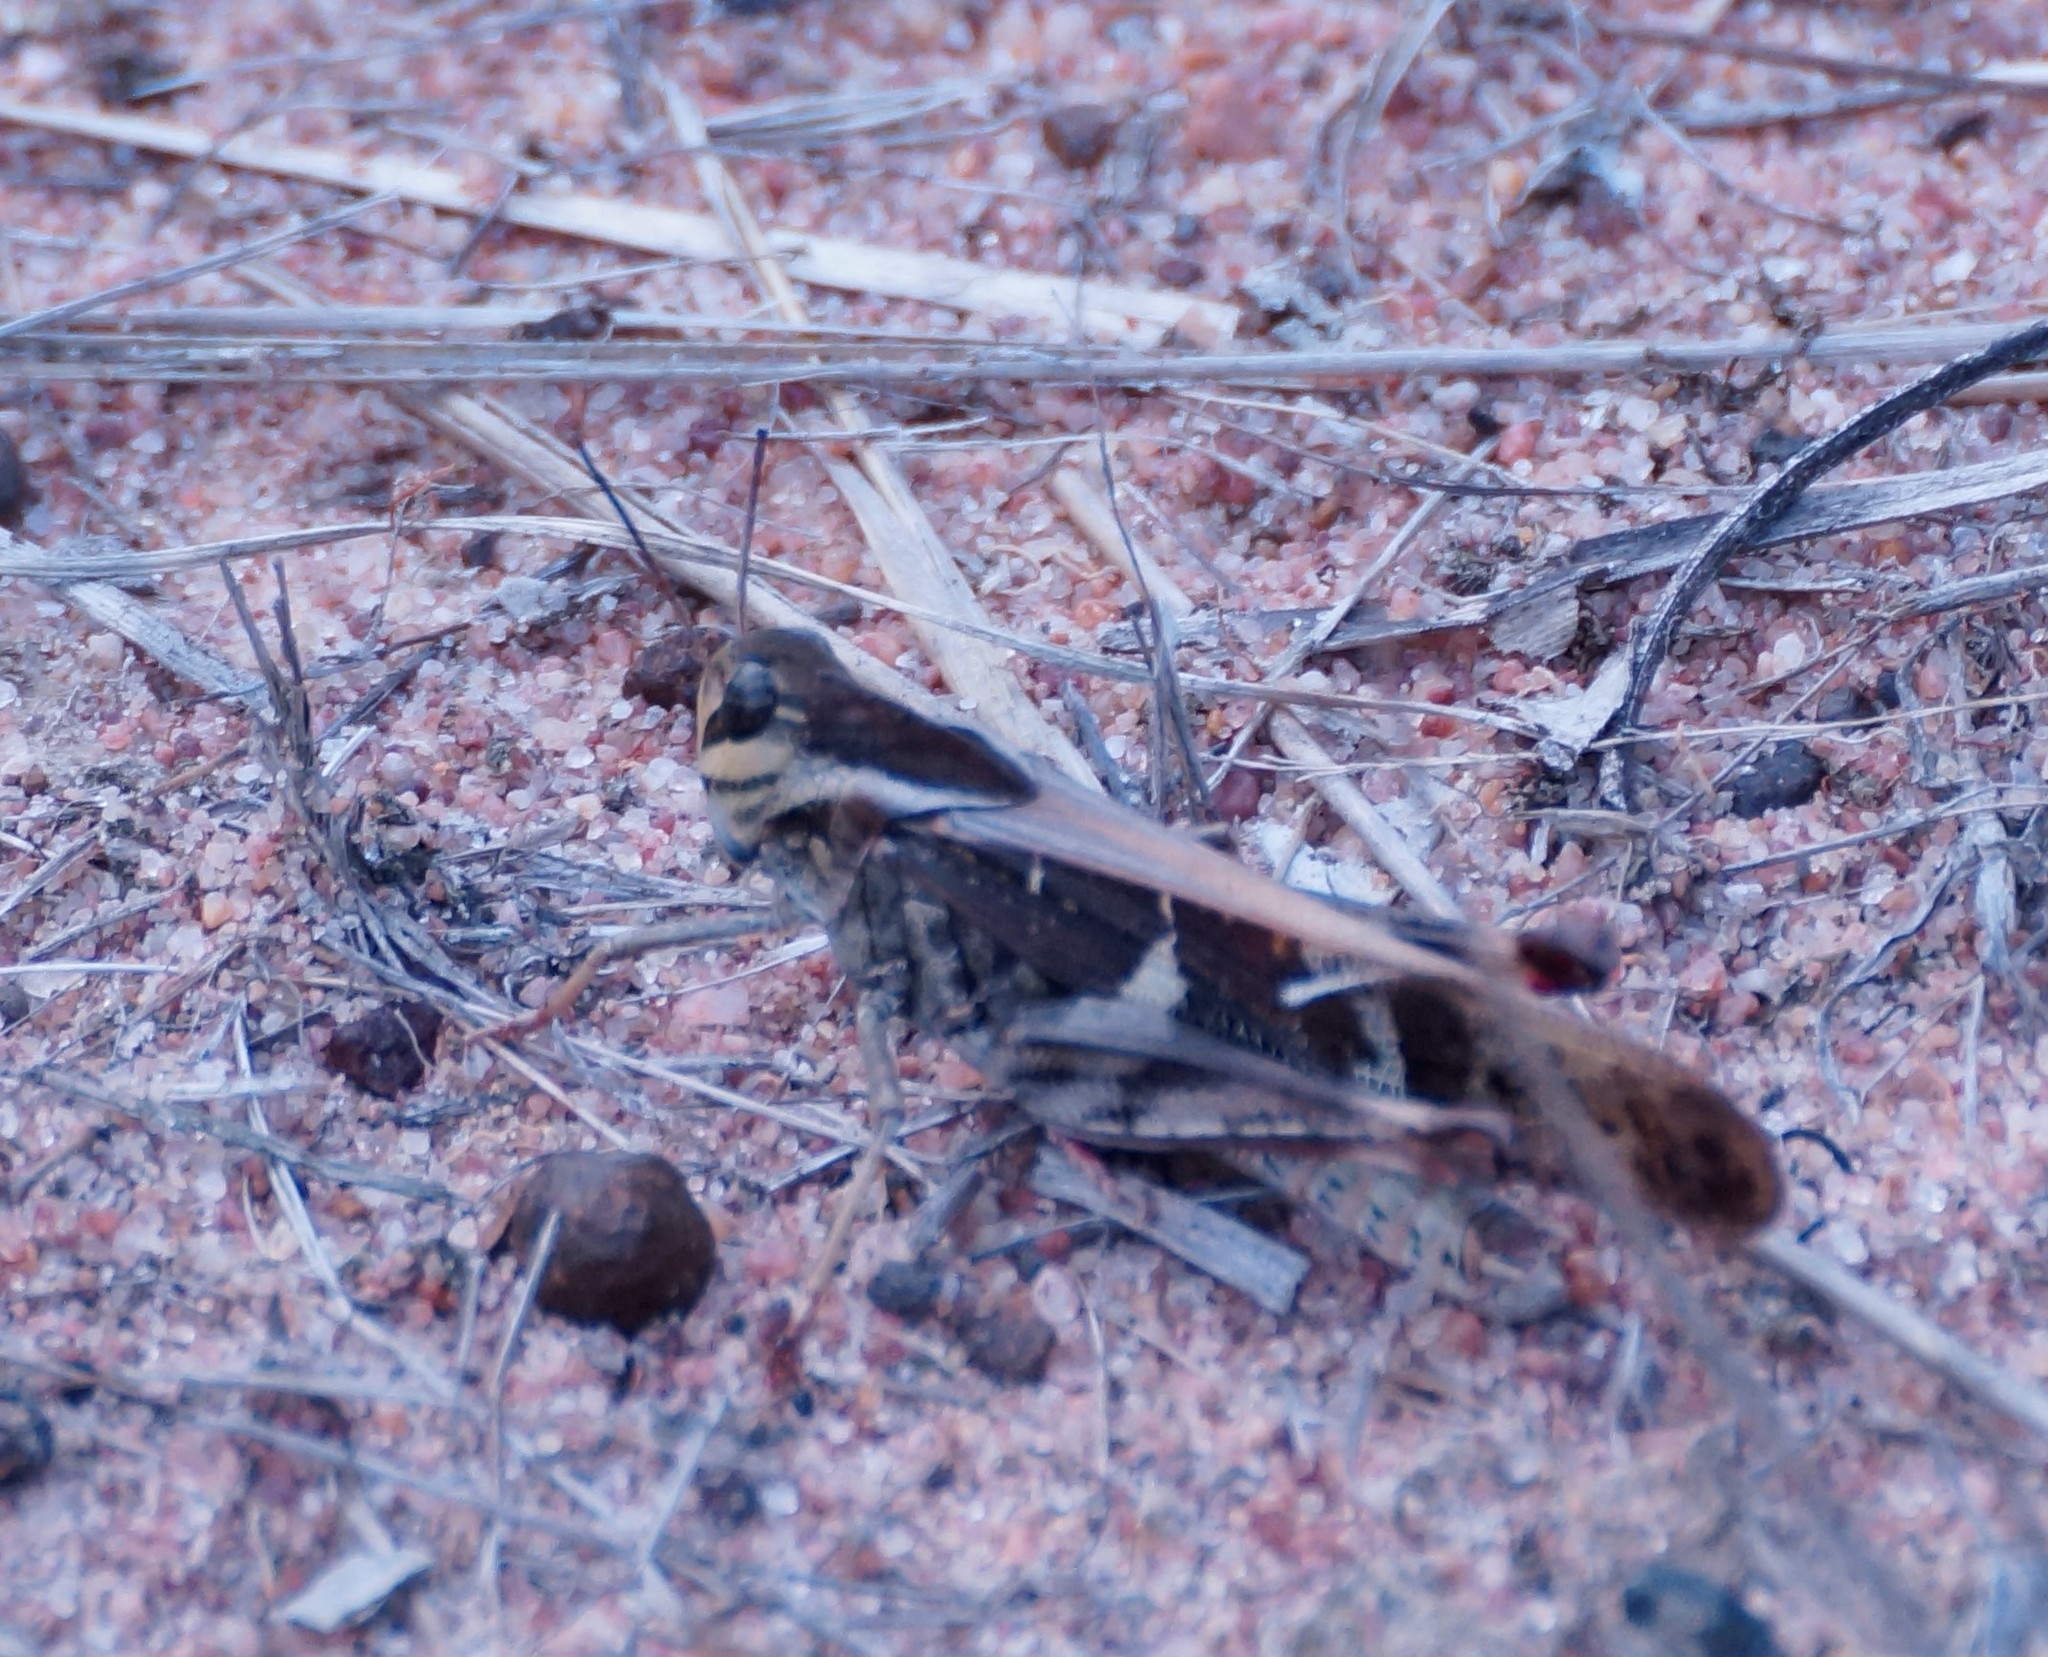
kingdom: Animalia
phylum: Arthropoda
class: Insecta
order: Orthoptera
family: Acrididae
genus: Gastrimargus
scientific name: Gastrimargus musicus
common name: Yellow-winged locust
